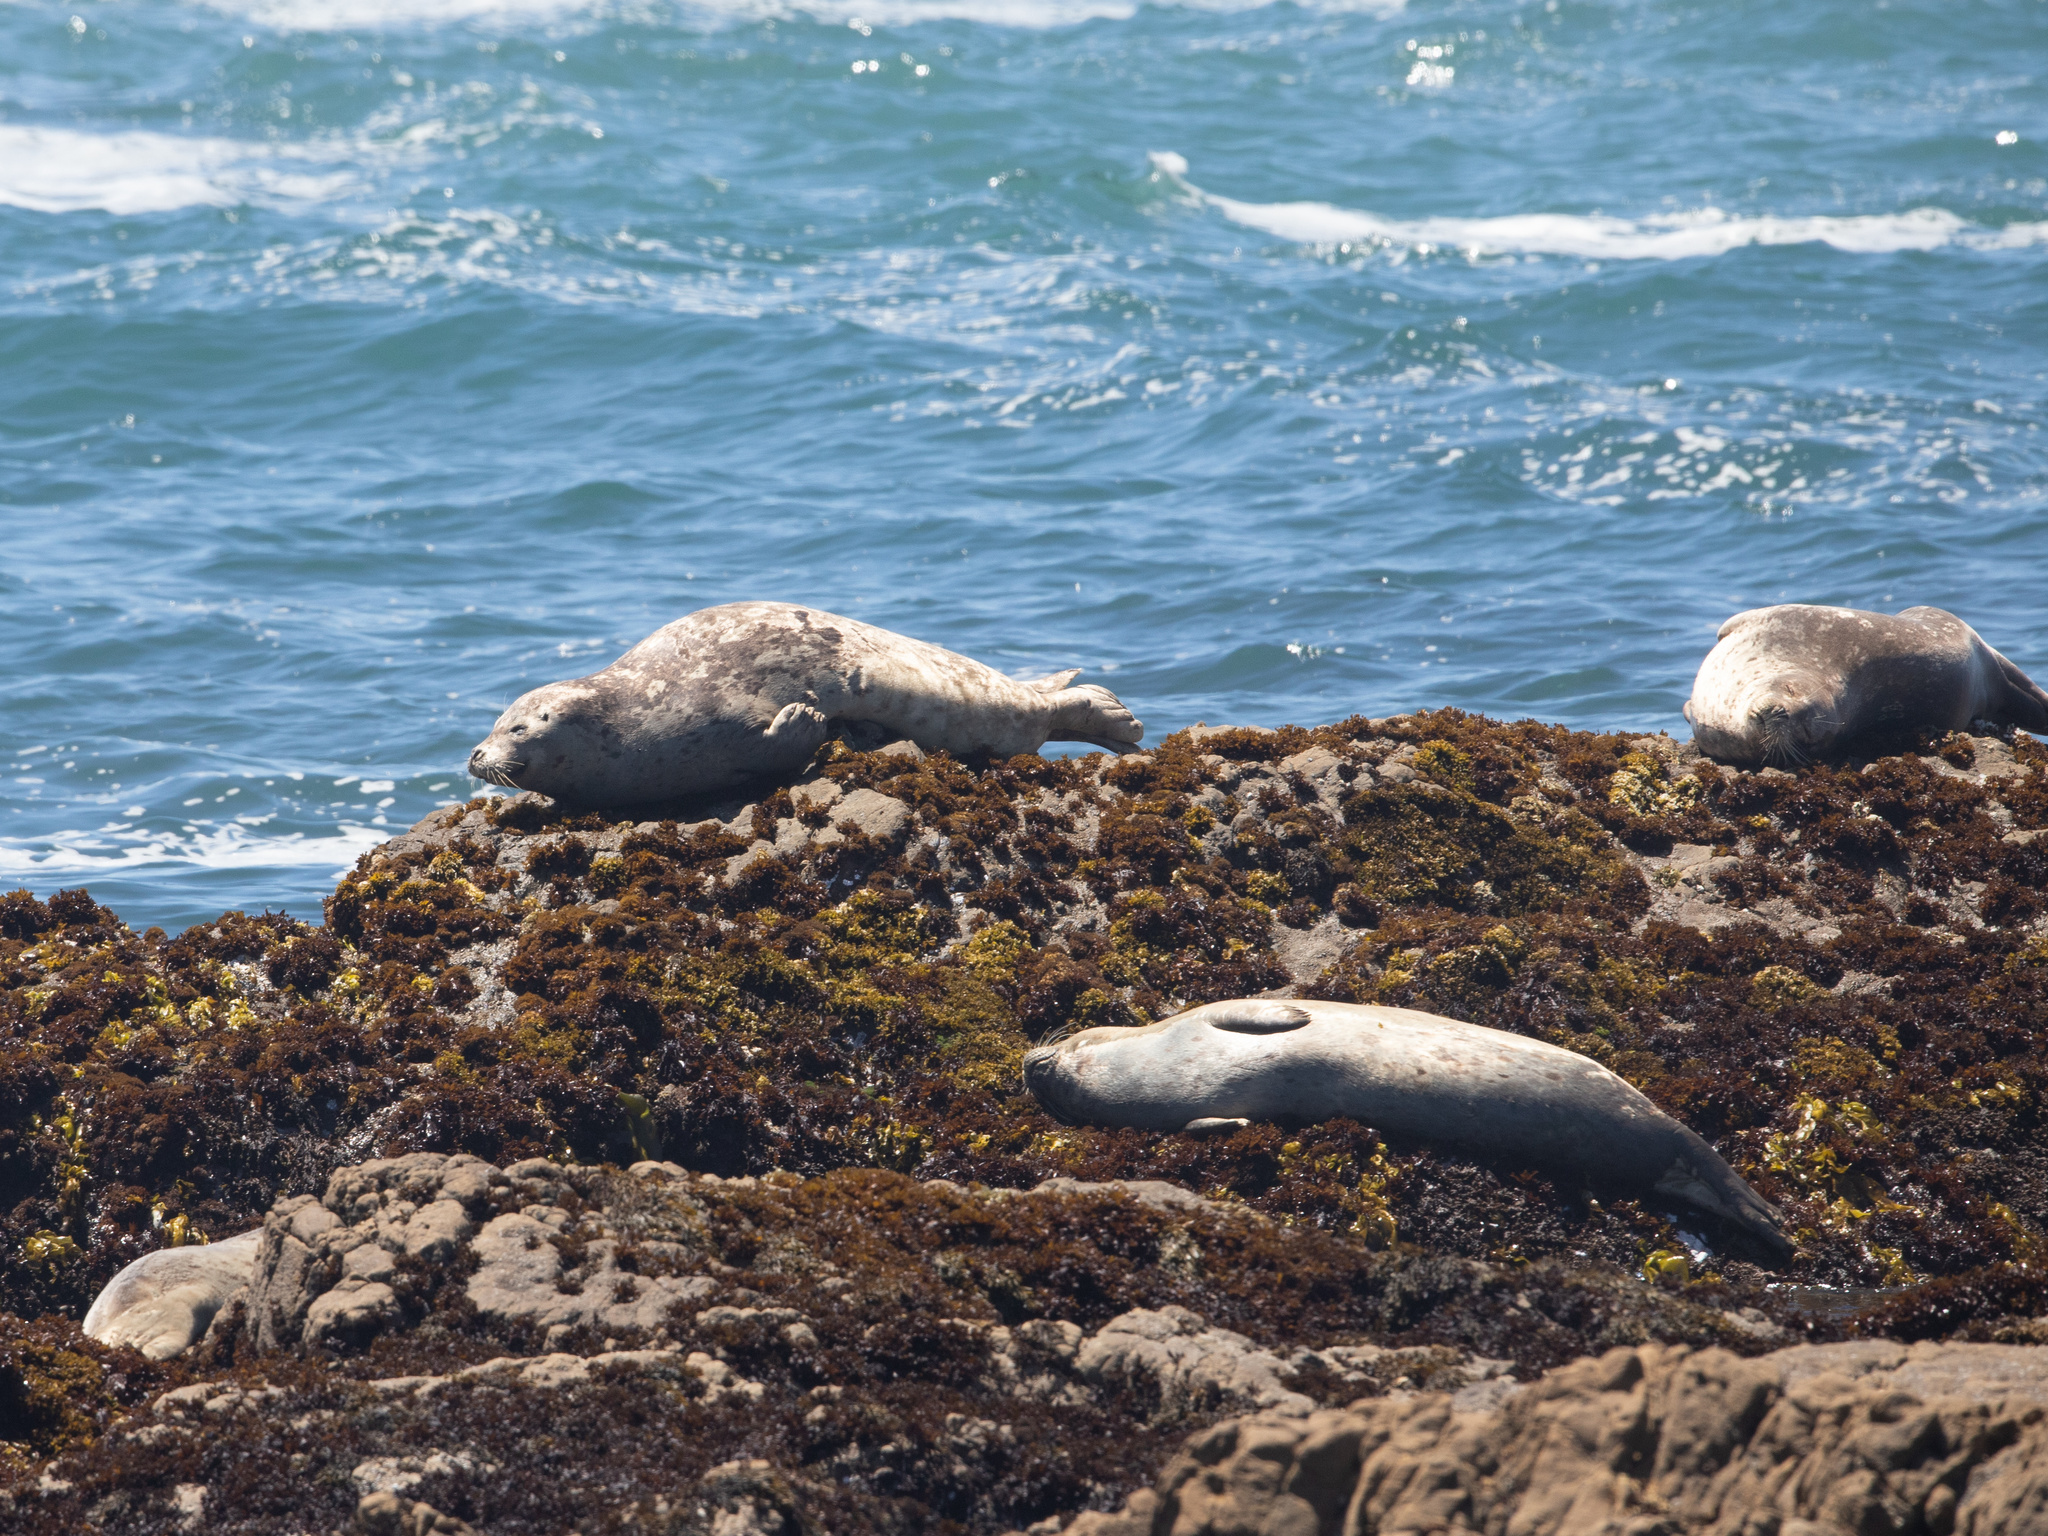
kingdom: Animalia
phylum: Chordata
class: Mammalia
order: Carnivora
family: Phocidae
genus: Phoca
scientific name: Phoca vitulina
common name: Harbor seal
